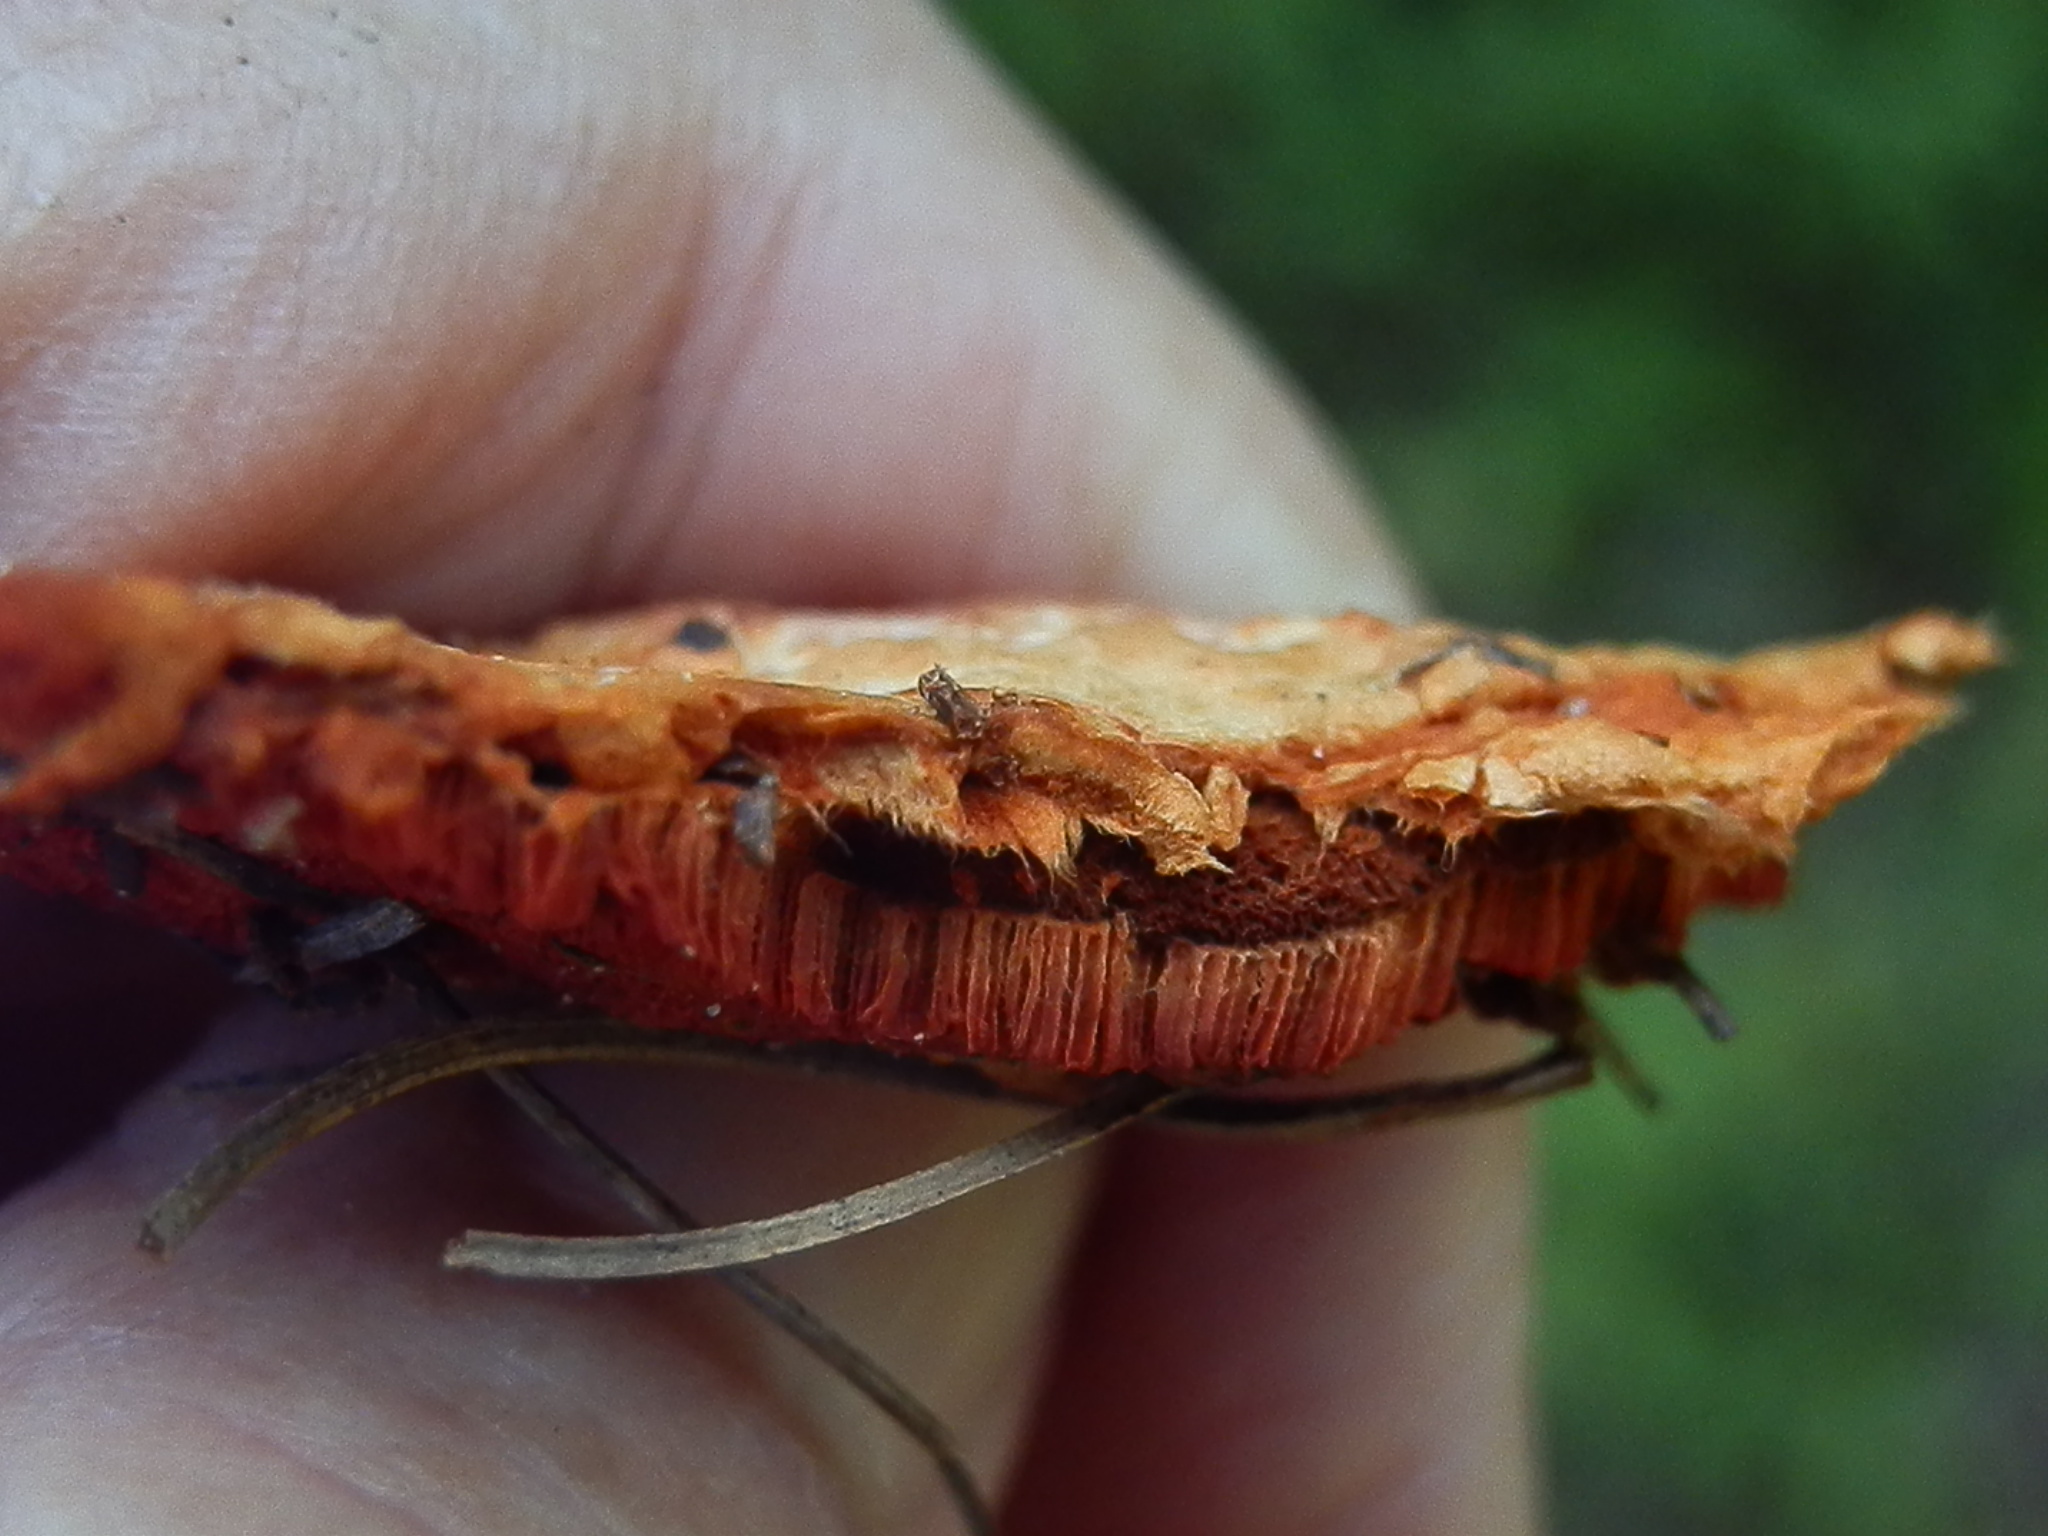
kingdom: Fungi
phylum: Basidiomycota
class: Agaricomycetes
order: Polyporales
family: Polyporaceae
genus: Trametes
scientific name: Trametes cinnabarina
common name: Northern cinnabar polypore
